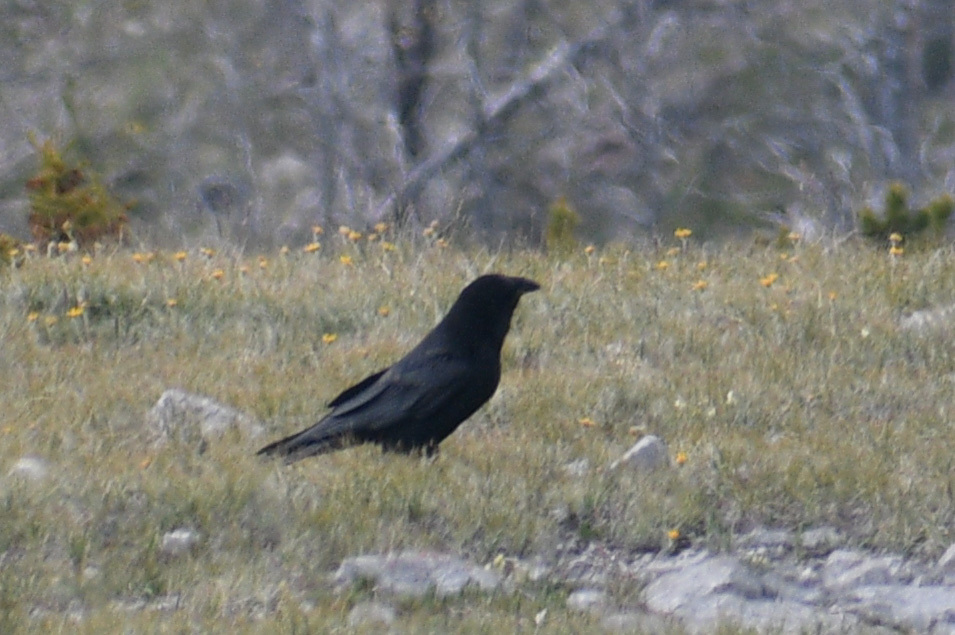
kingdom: Animalia
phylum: Chordata
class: Aves
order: Passeriformes
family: Corvidae
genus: Corvus
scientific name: Corvus corax
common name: Common raven
